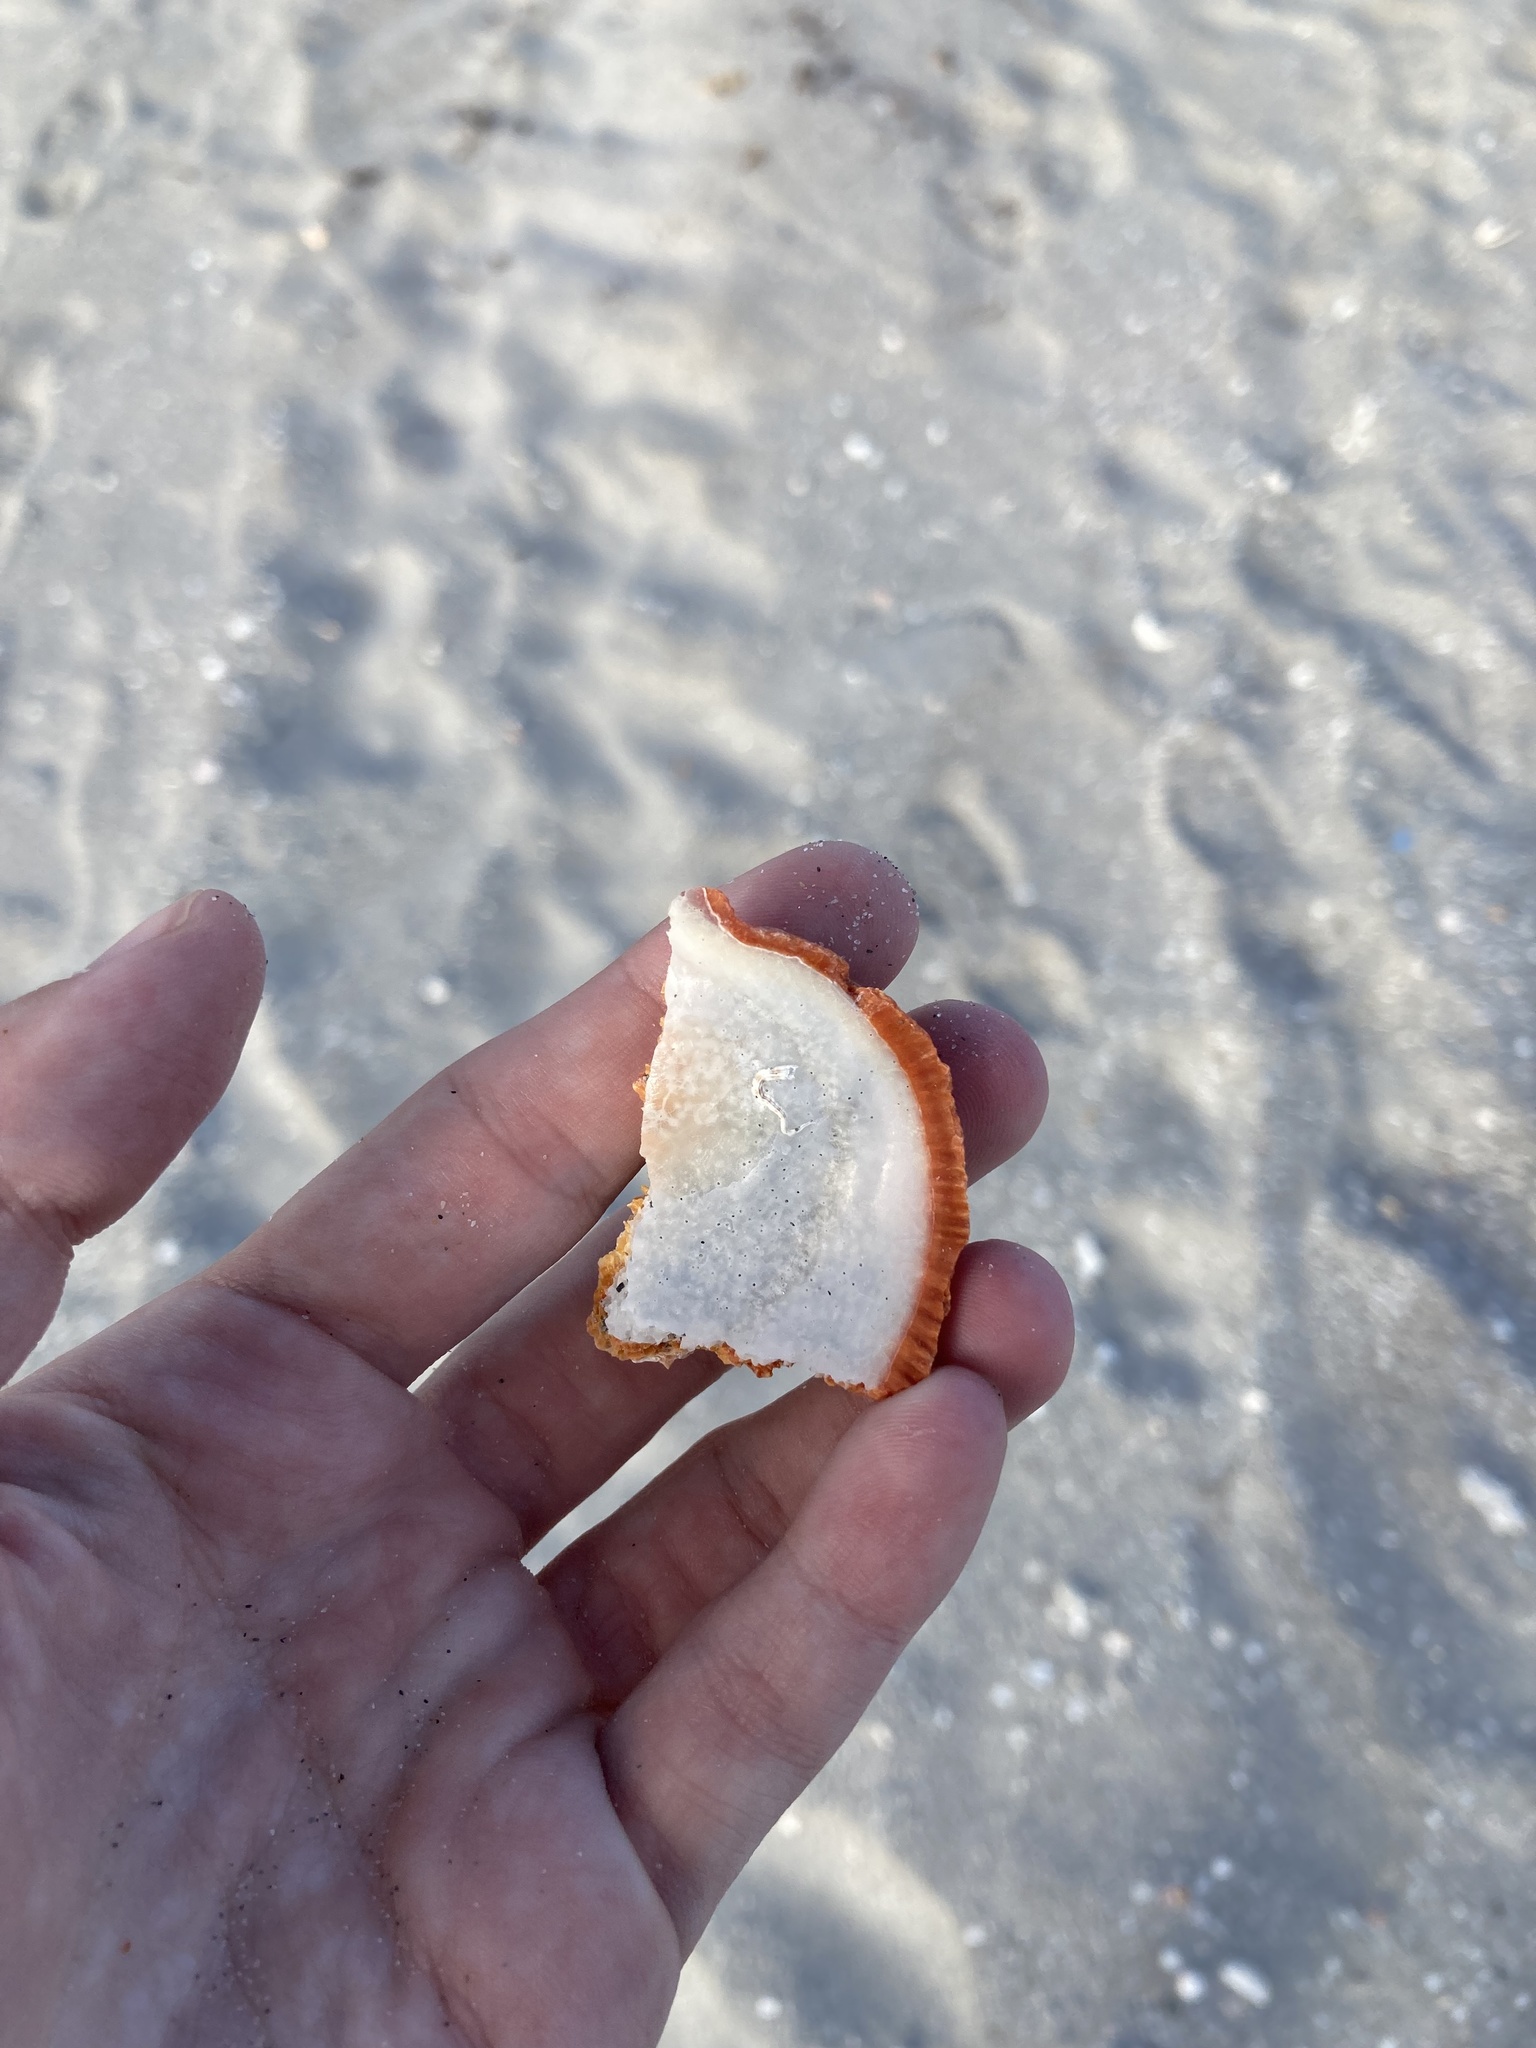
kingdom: Animalia
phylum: Mollusca
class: Bivalvia
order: Pectinida
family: Spondylidae
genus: Spondylus
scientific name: Spondylus tenuis
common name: Digitate thorny oyster
